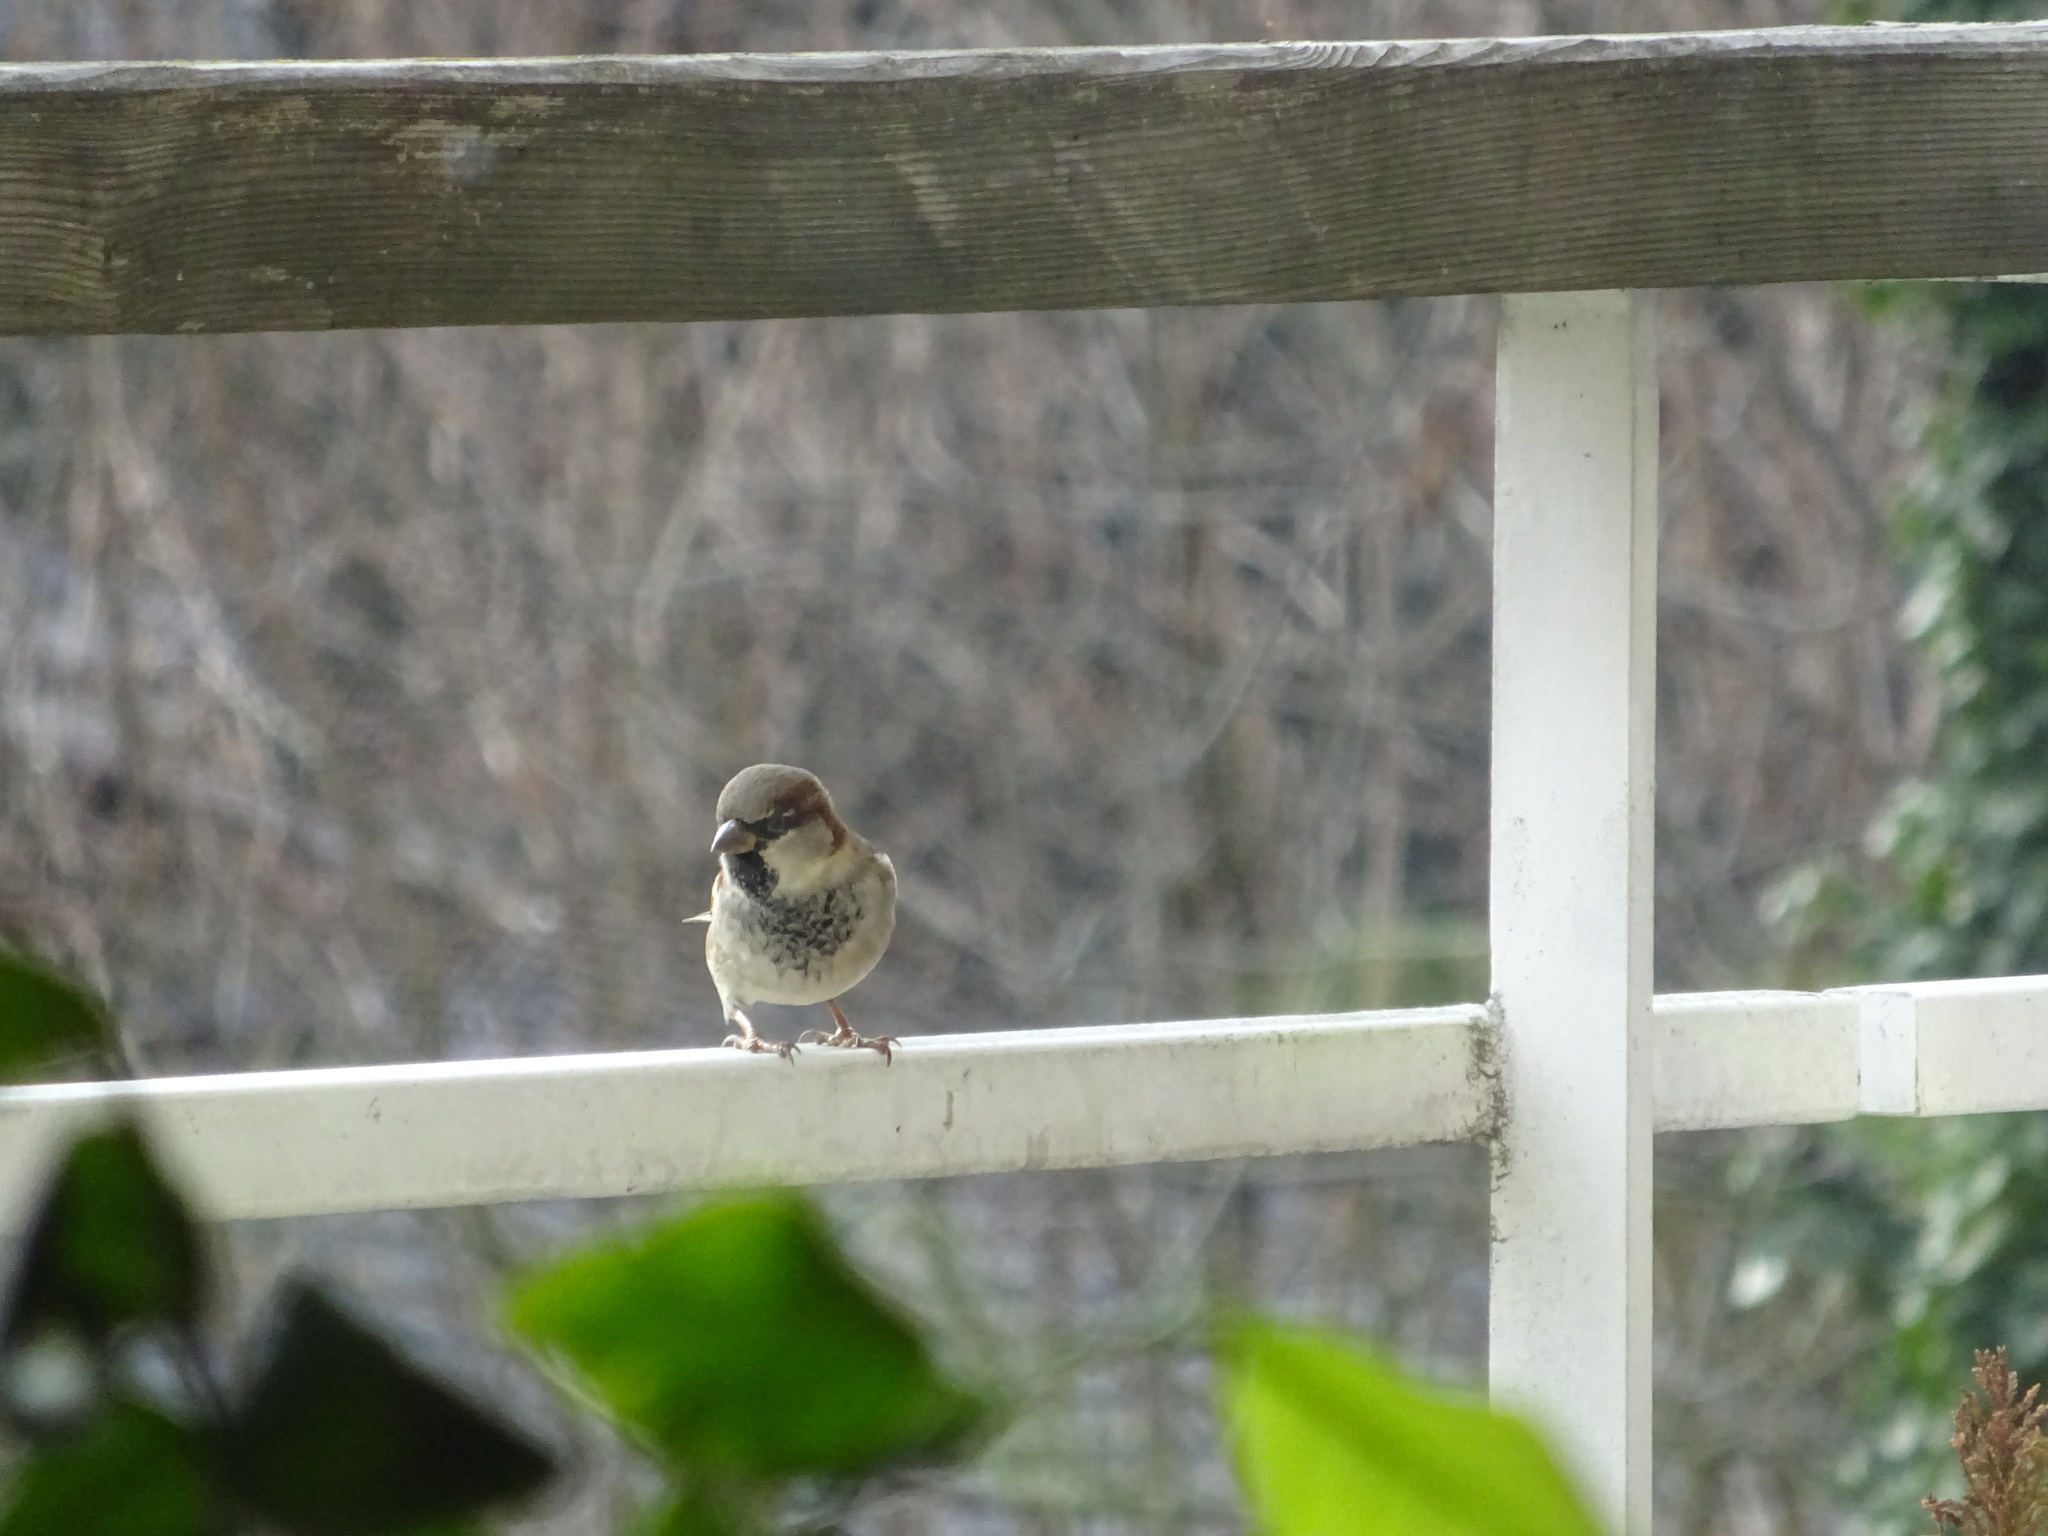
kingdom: Animalia
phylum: Chordata
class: Aves
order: Passeriformes
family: Passeridae
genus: Passer
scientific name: Passer domesticus
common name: House sparrow
